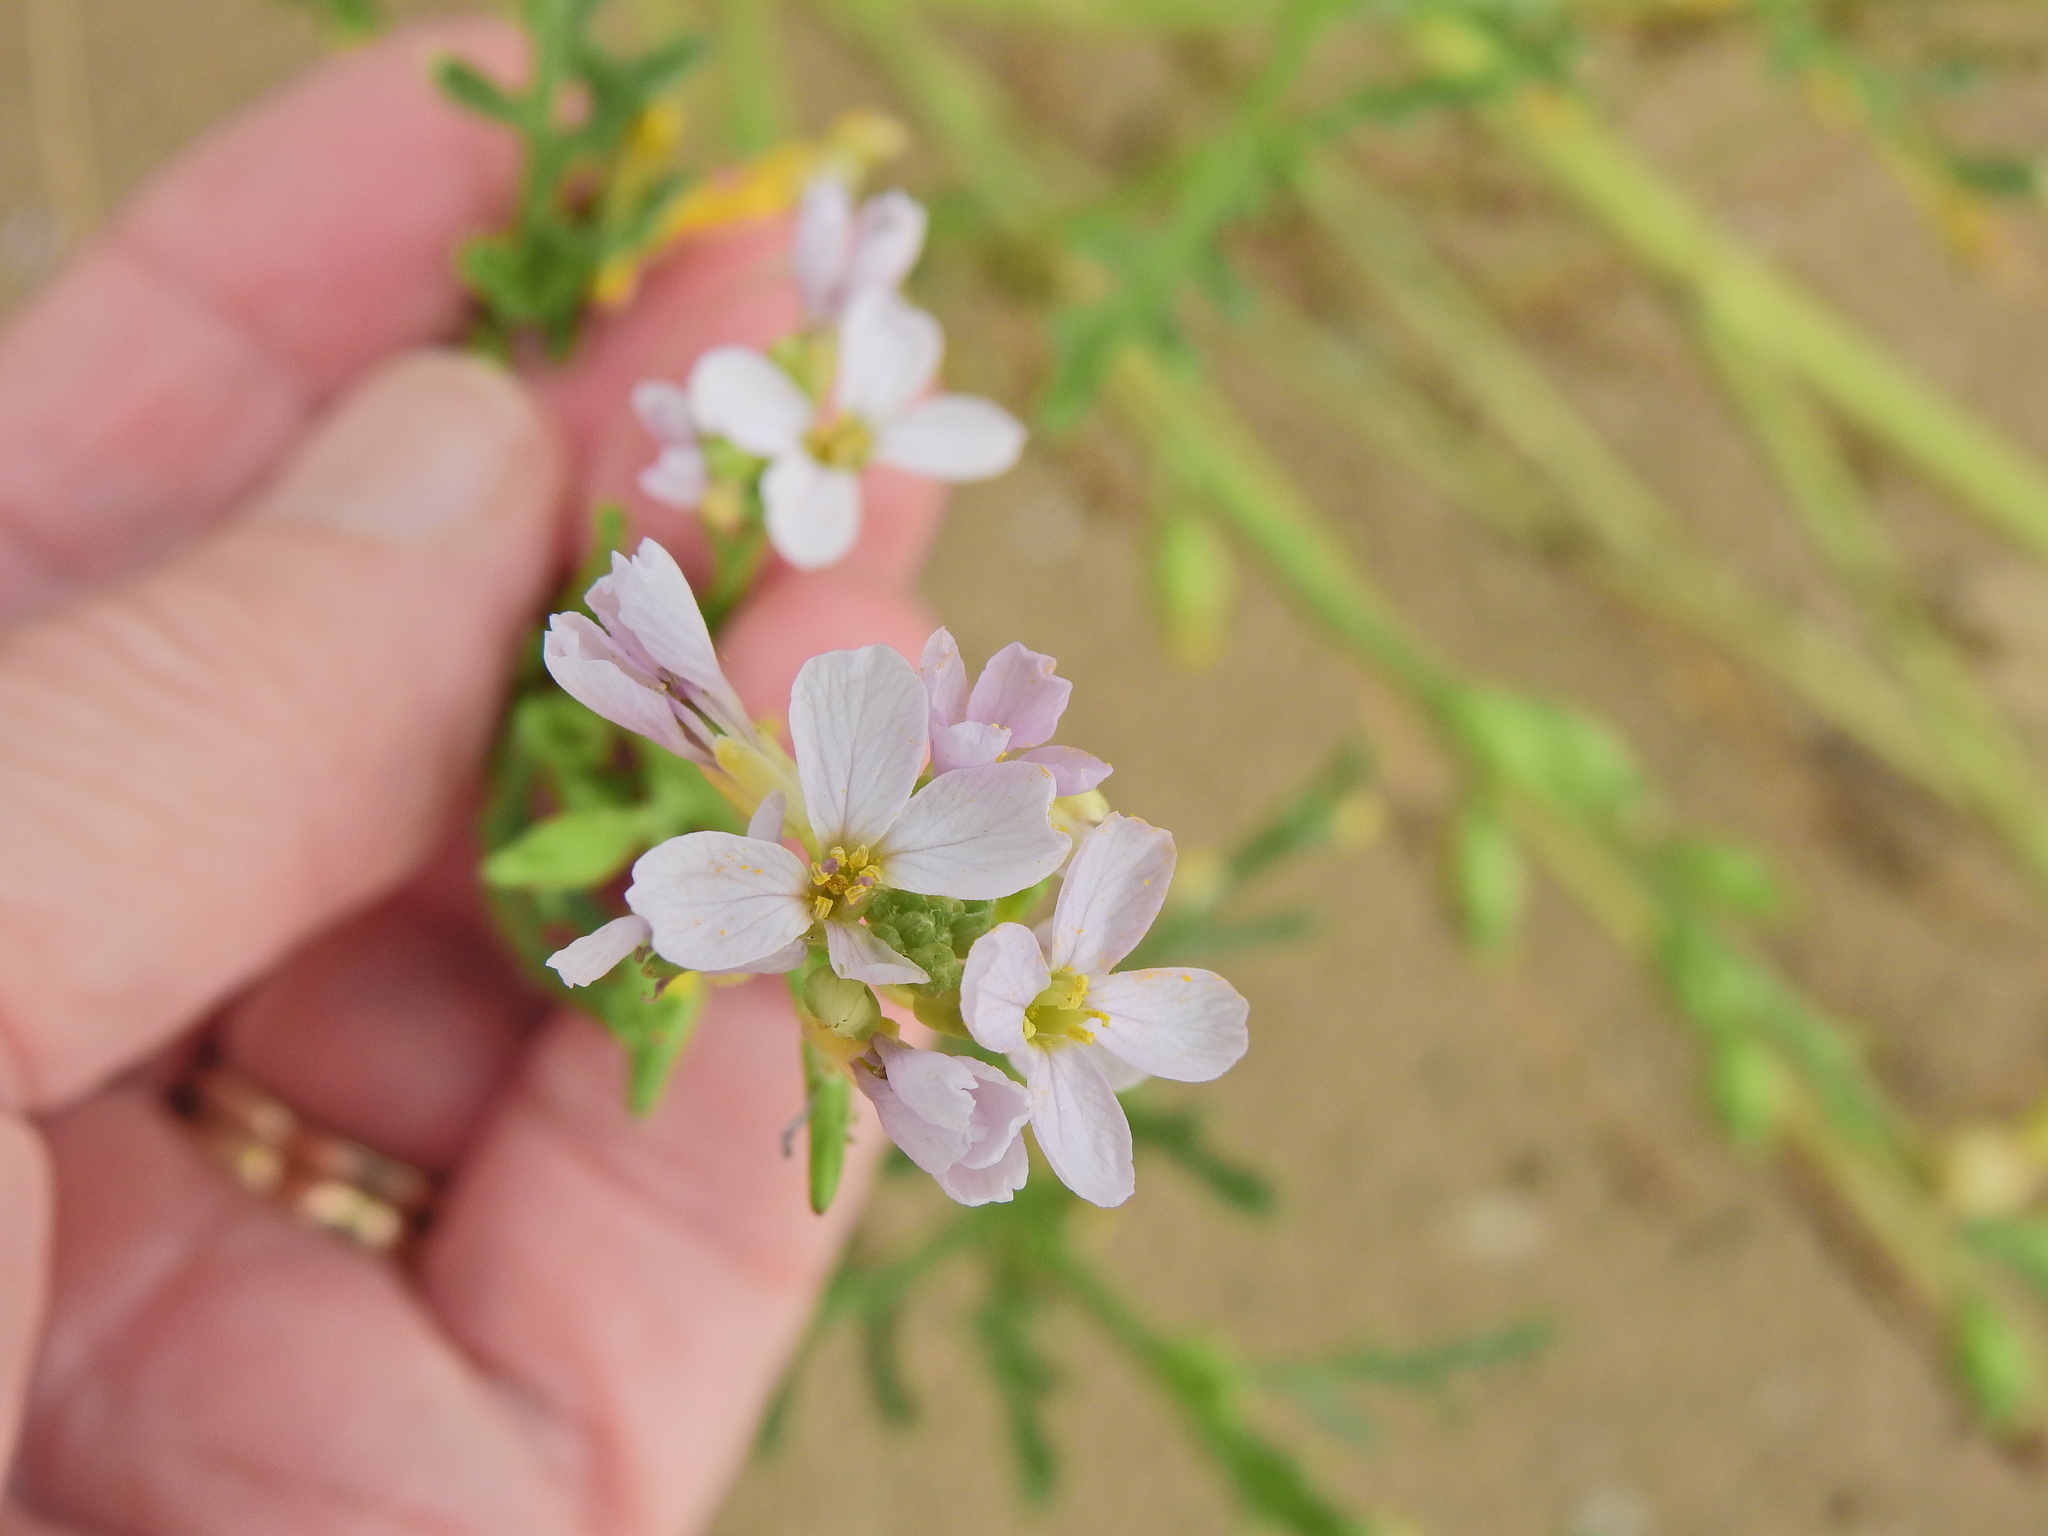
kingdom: Plantae
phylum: Tracheophyta
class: Magnoliopsida
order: Brassicales
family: Brassicaceae
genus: Cakile
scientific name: Cakile maritima
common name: Sea rocket
